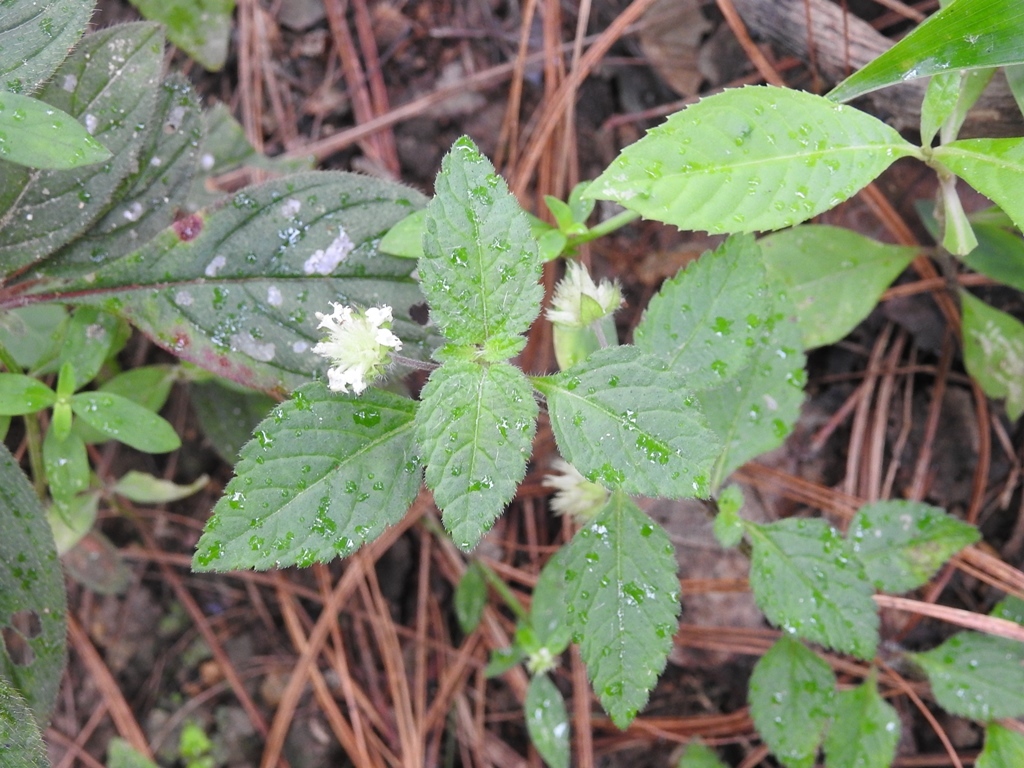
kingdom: Plantae
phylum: Tracheophyta
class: Magnoliopsida
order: Lamiales
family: Lamiaceae
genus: Hyptis
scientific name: Hyptis atrorubens
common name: Lanmant
